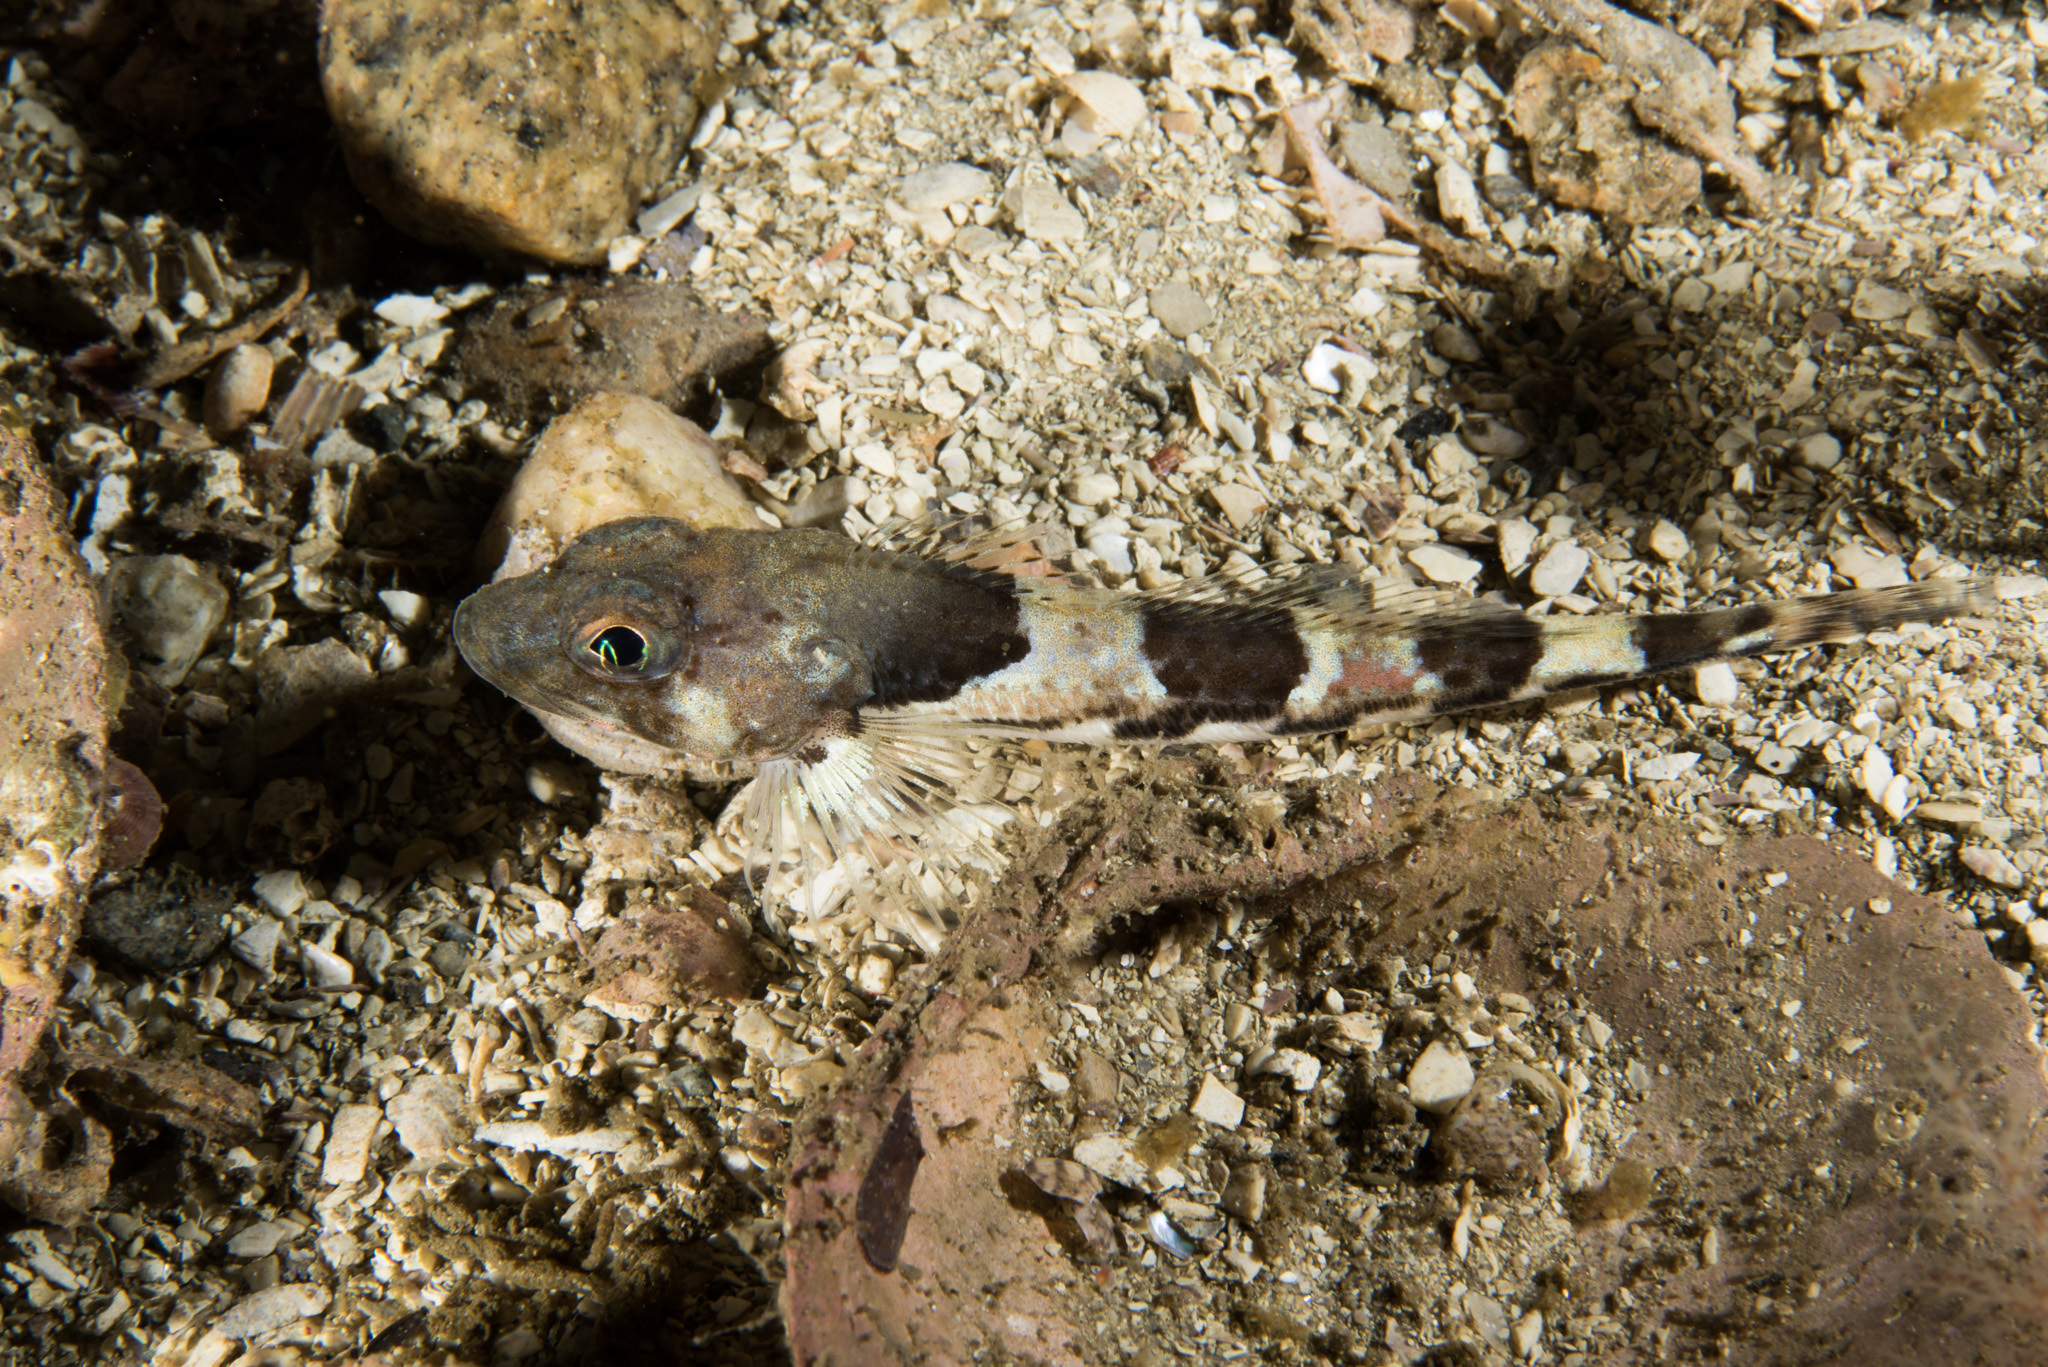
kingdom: Animalia
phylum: Chordata
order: Scorpaeniformes
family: Cottidae
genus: Triglops
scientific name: Triglops murrayi
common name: Moustache sculpin
